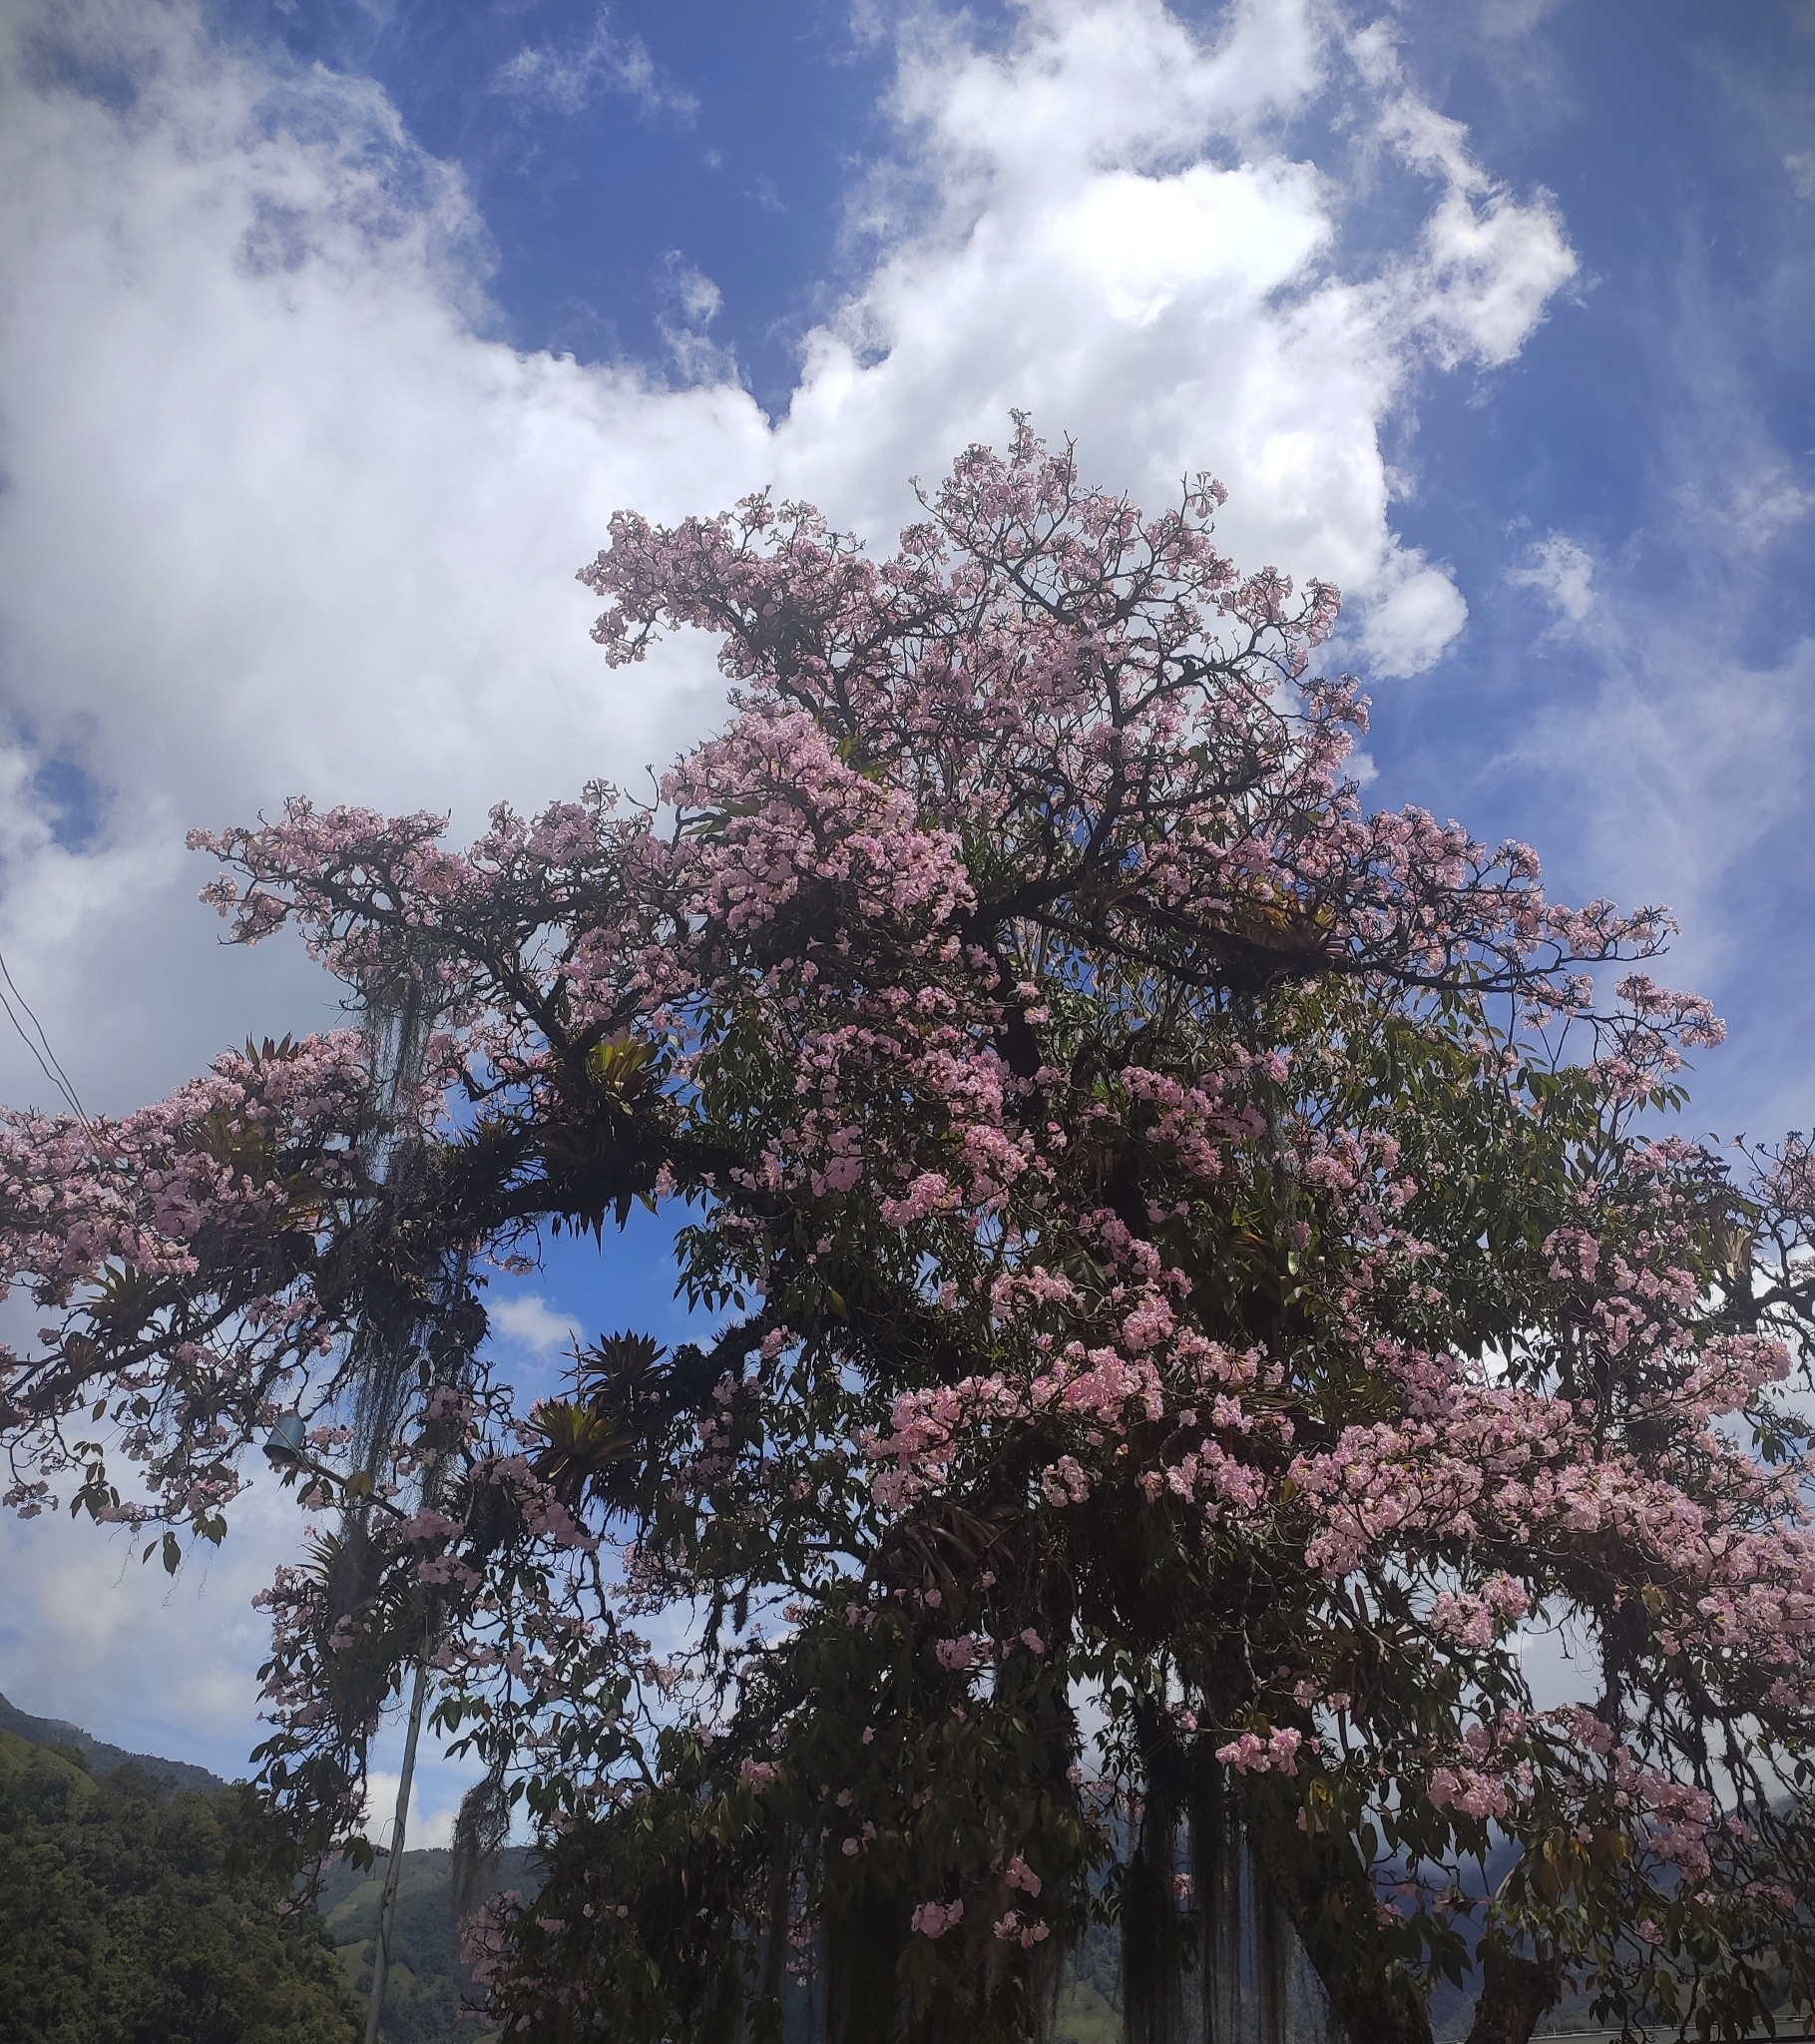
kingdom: Plantae
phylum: Tracheophyta
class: Magnoliopsida
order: Lamiales
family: Bignoniaceae
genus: Tabebuia
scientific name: Tabebuia rosea
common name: Pink poui
